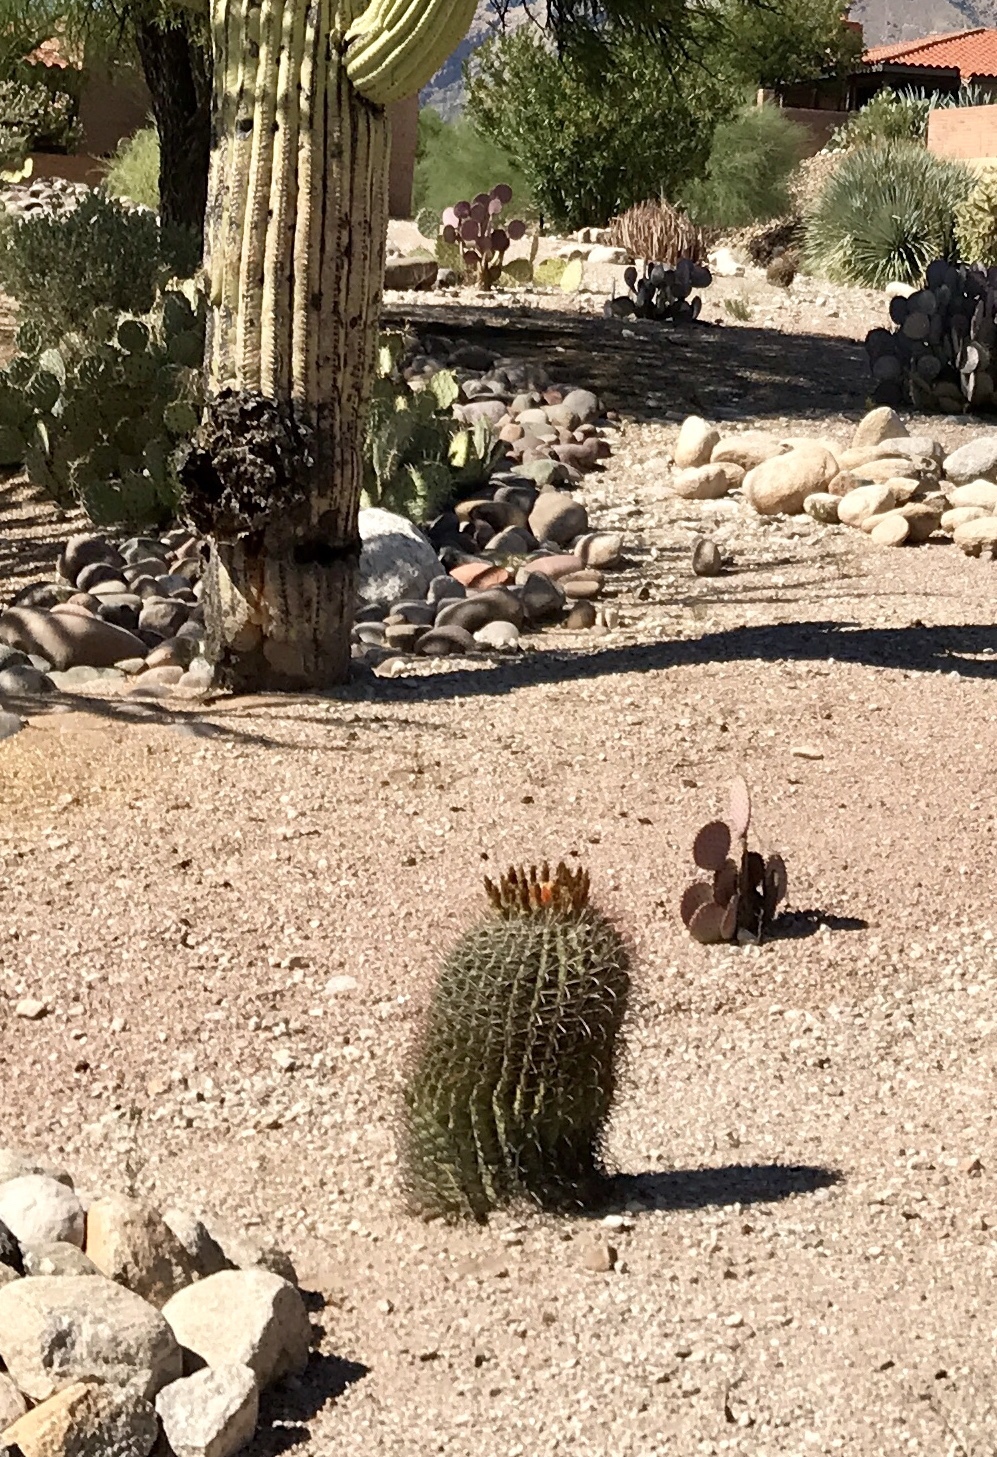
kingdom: Plantae
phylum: Tracheophyta
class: Magnoliopsida
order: Caryophyllales
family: Cactaceae
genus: Ferocactus
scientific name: Ferocactus wislizeni
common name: Candy barrel cactus
